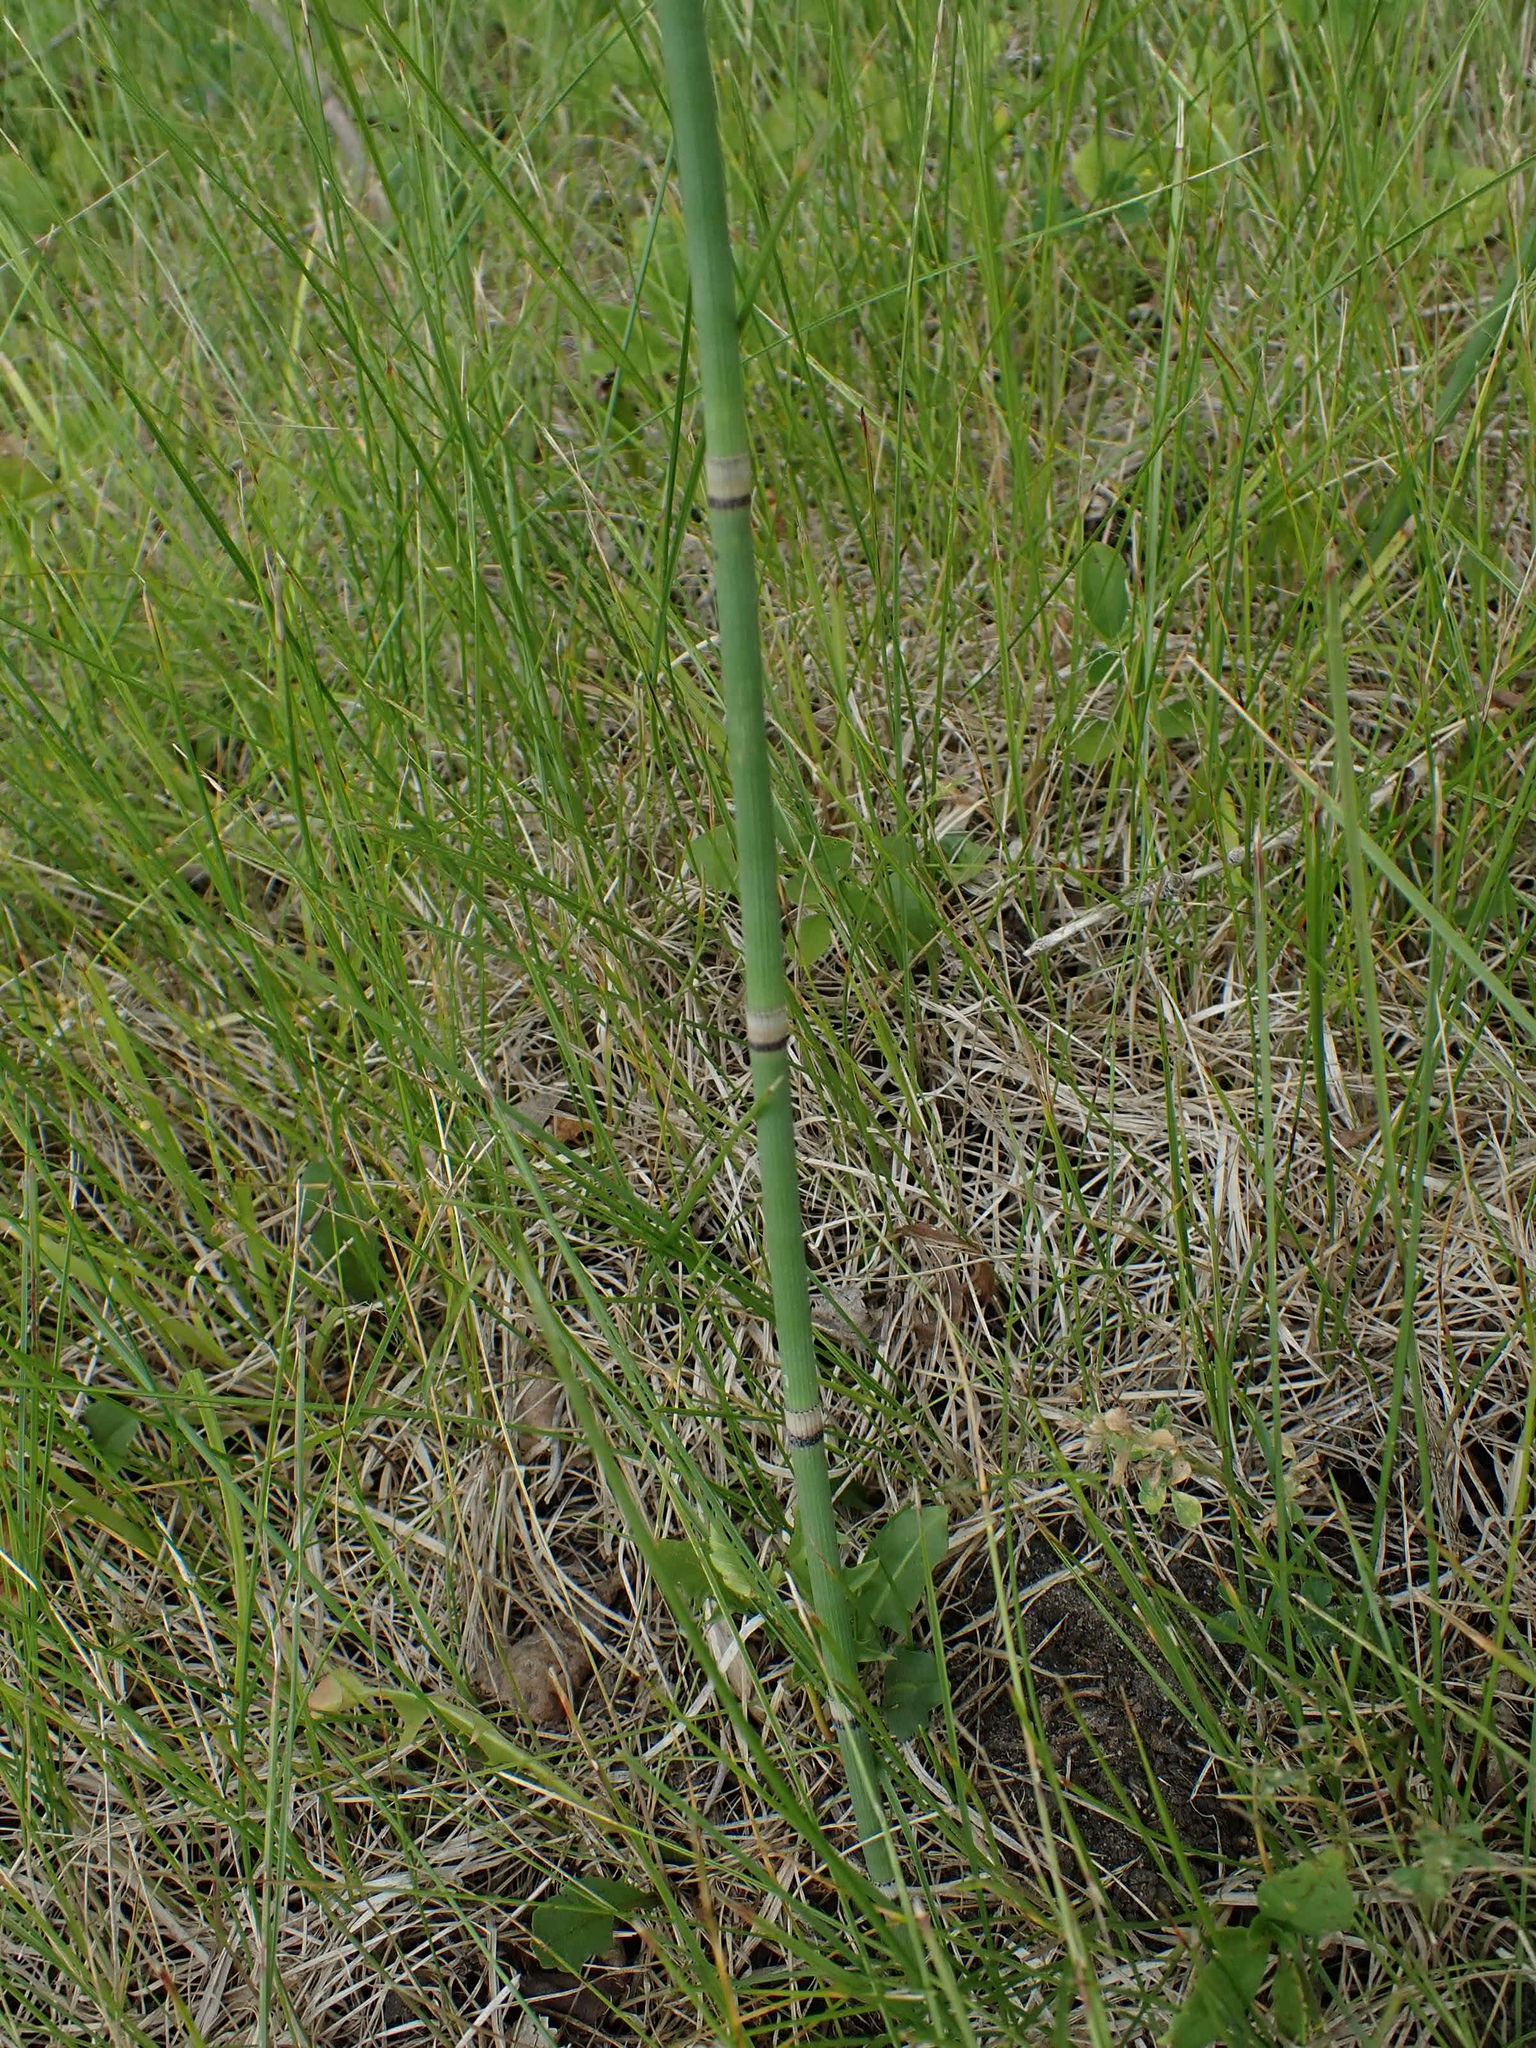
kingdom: Plantae
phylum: Tracheophyta
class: Polypodiopsida
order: Equisetales
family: Equisetaceae
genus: Equisetum
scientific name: Equisetum praealtum
